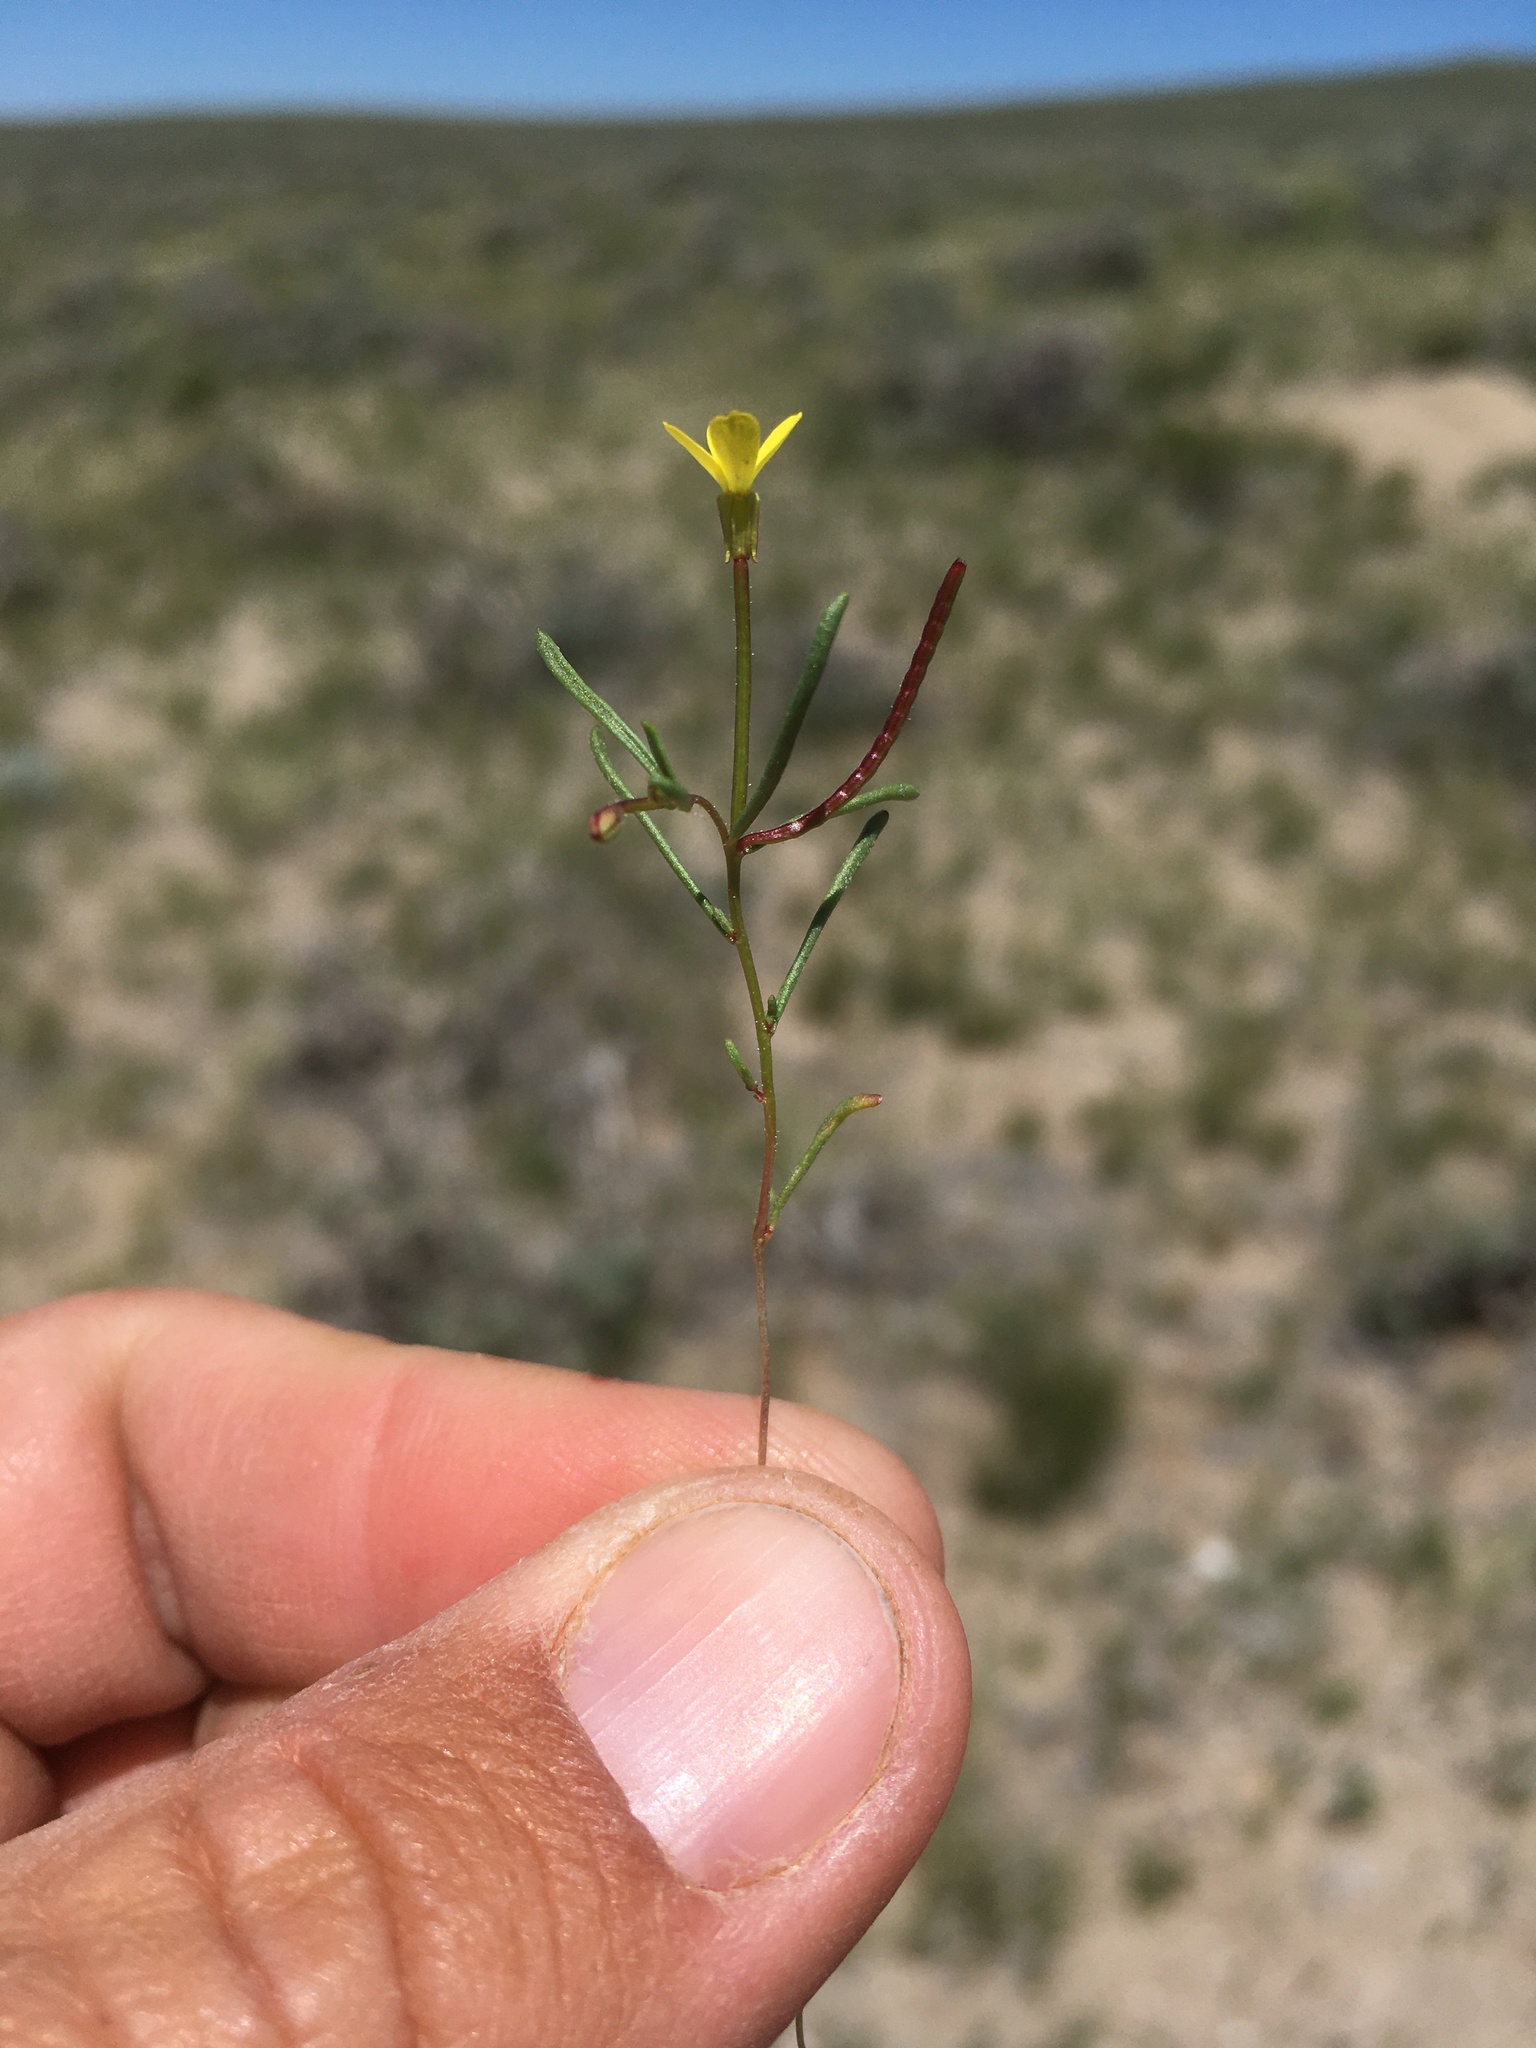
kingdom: Plantae
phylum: Tracheophyta
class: Magnoliopsida
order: Myrtales
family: Onagraceae
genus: Camissonia
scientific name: Camissonia parvula
